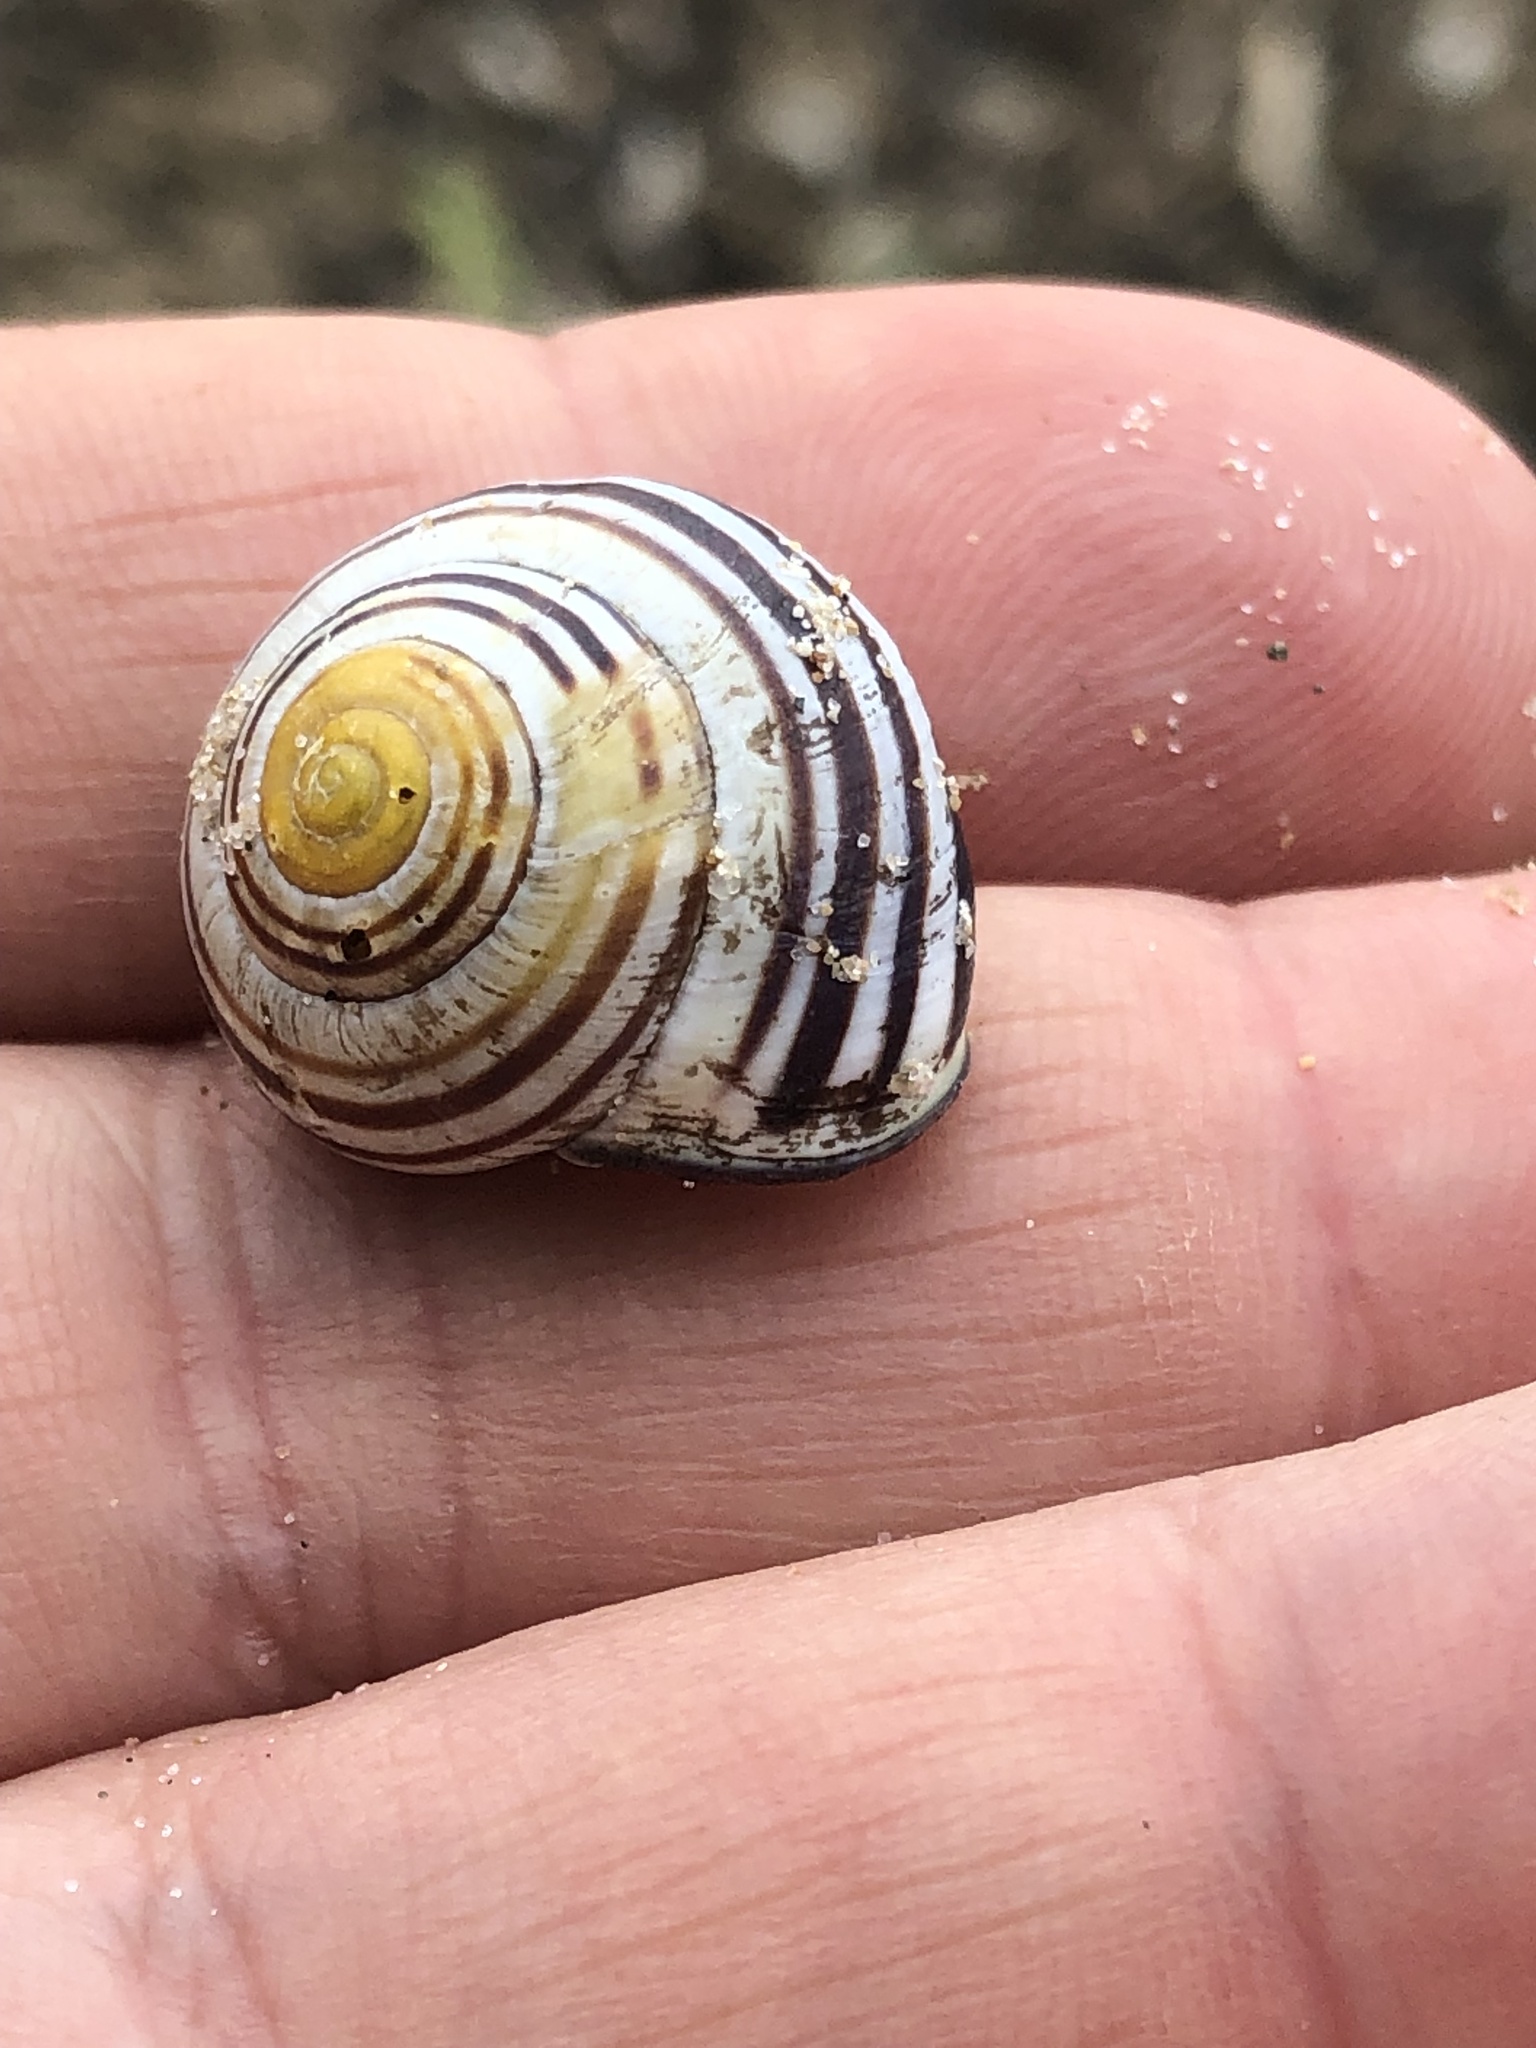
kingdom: Animalia
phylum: Mollusca
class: Gastropoda
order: Stylommatophora
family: Helicidae
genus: Cepaea
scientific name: Cepaea nemoralis
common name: Grovesnail
